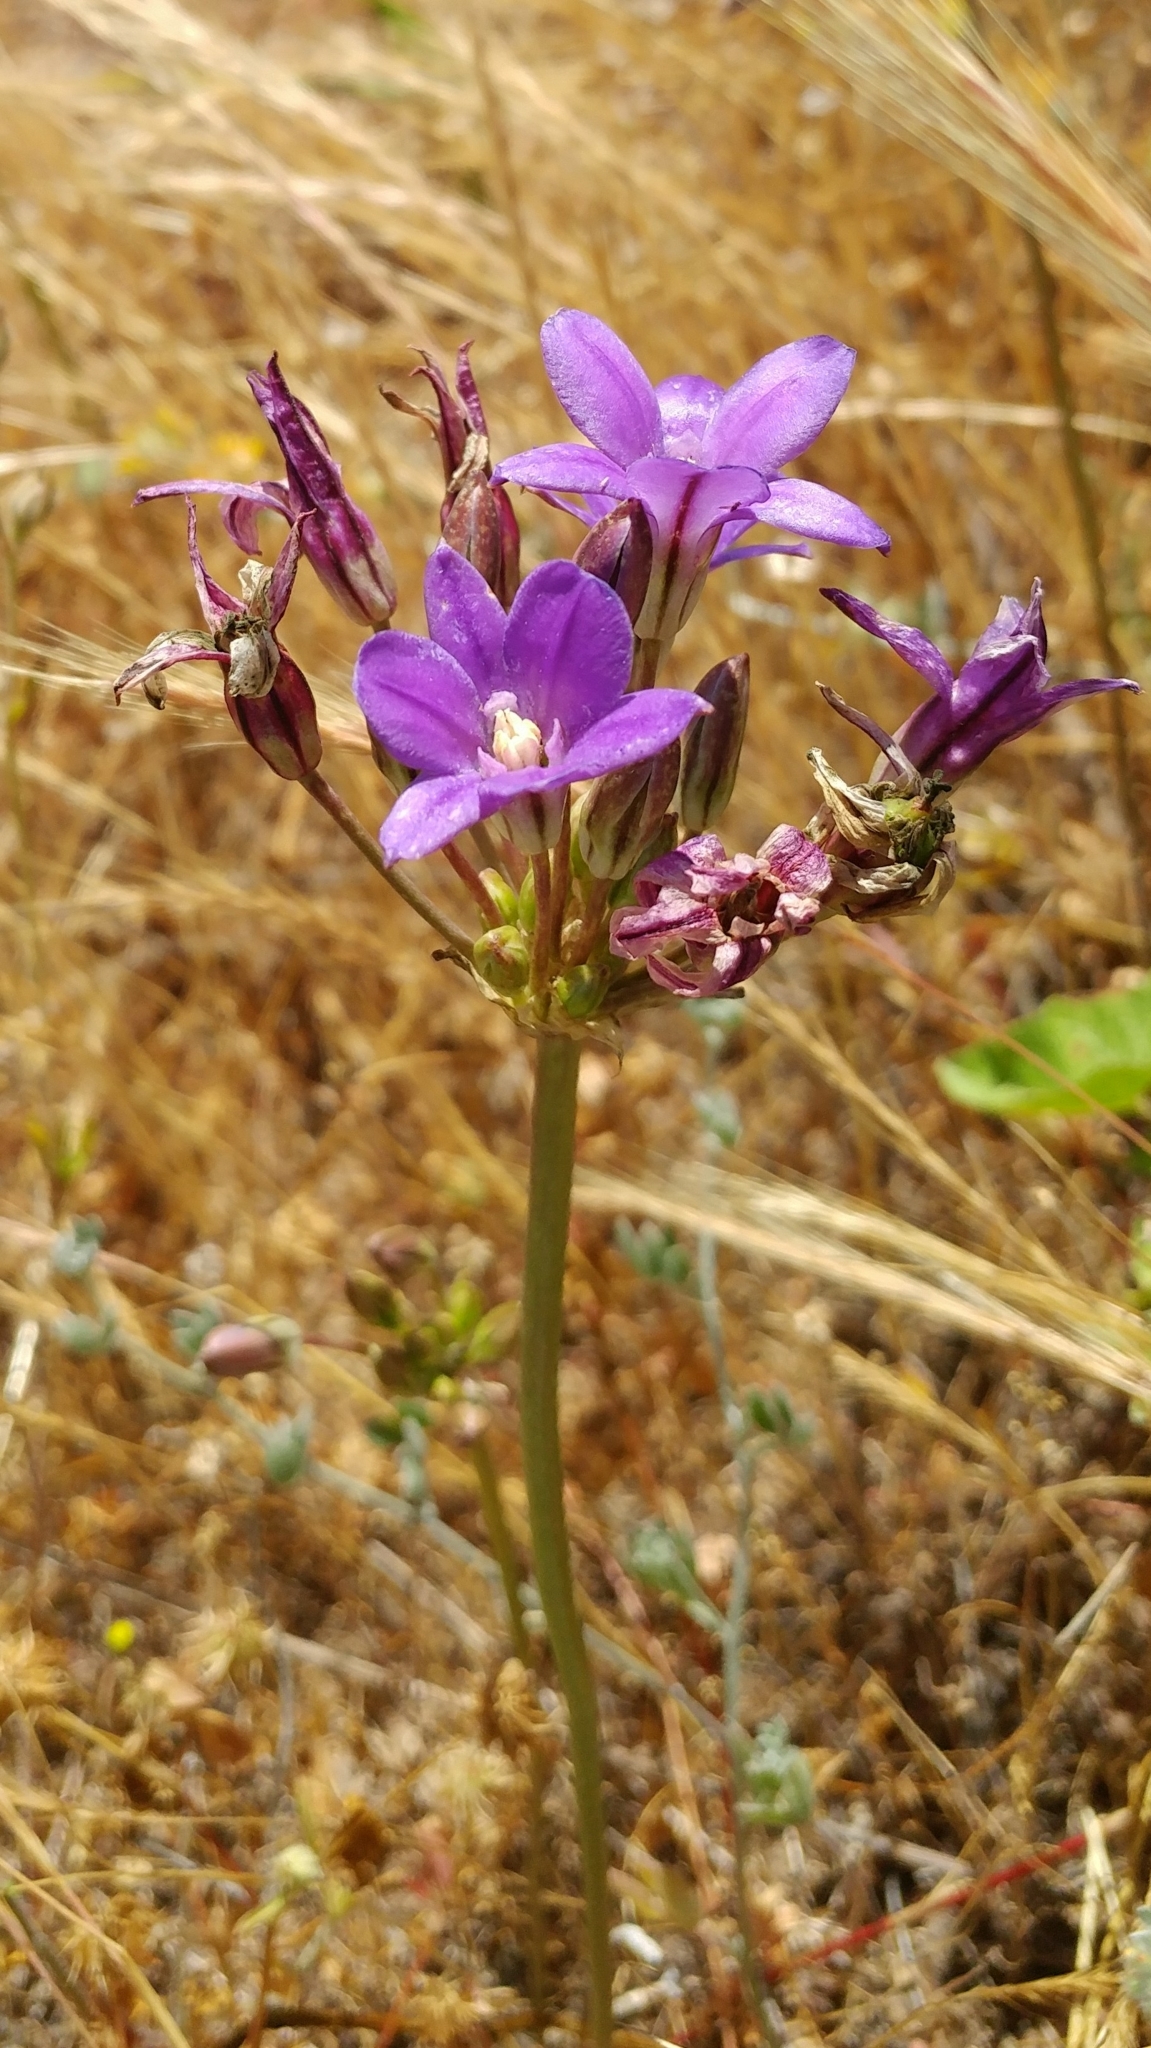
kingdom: Plantae
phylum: Tracheophyta
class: Liliopsida
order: Asparagales
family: Asparagaceae
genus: Brodiaea
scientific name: Brodiaea kinkiensis
